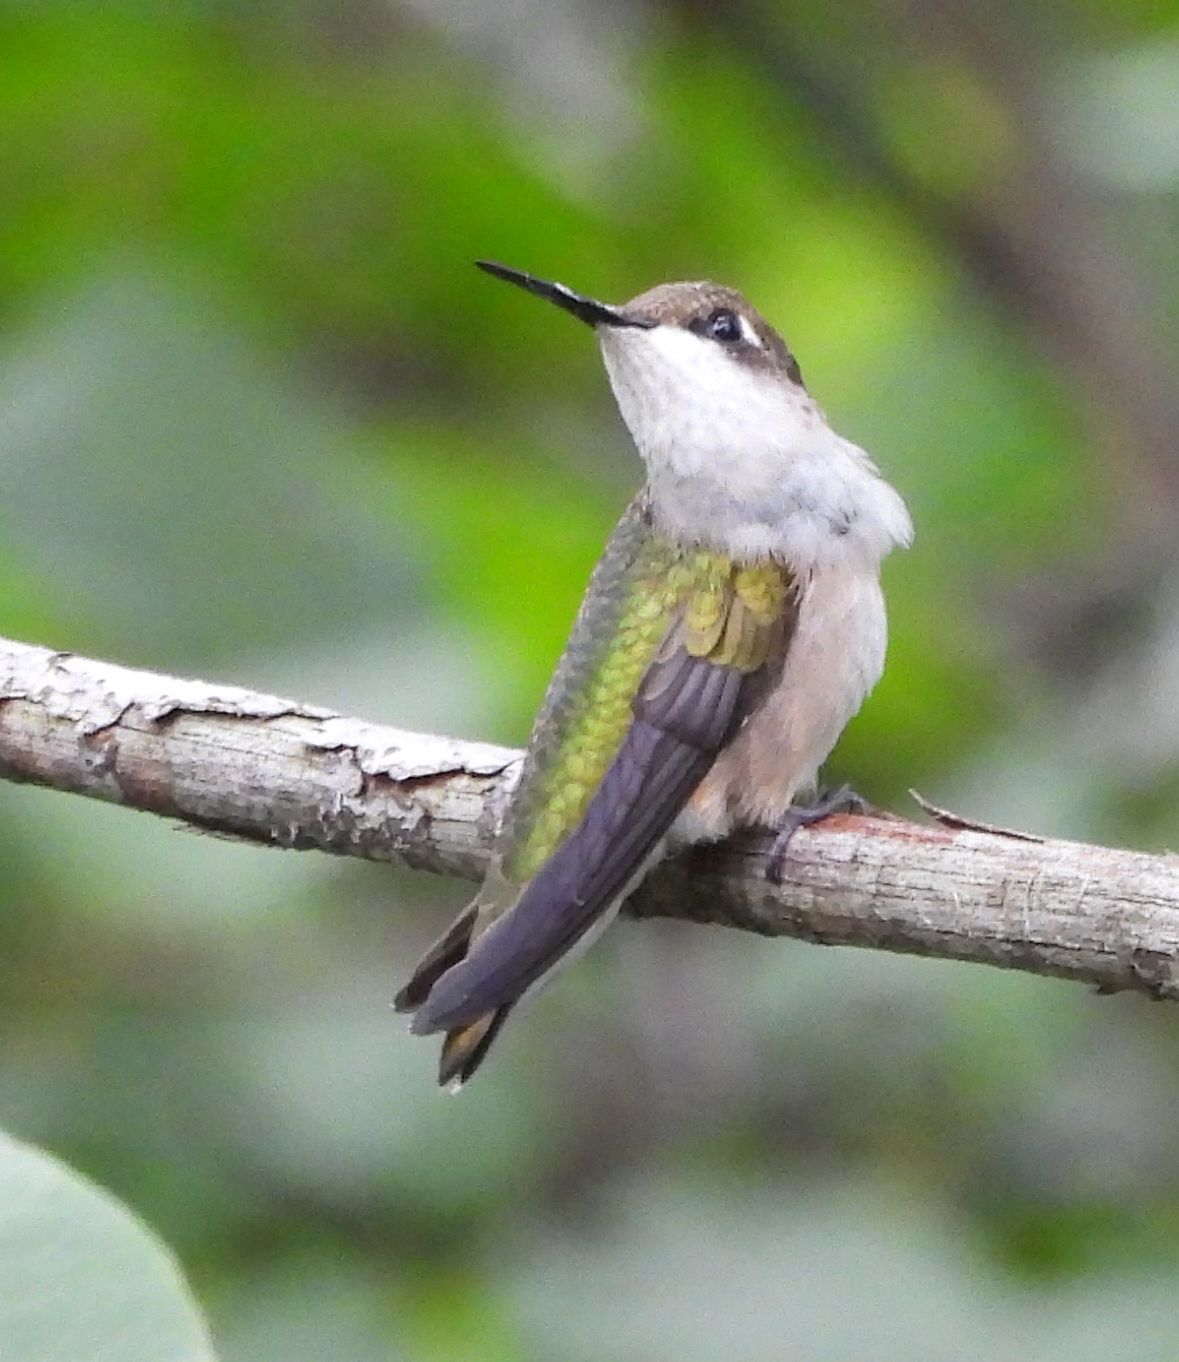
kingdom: Animalia
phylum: Chordata
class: Aves
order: Apodiformes
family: Trochilidae
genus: Archilochus
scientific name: Archilochus colubris
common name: Ruby-throated hummingbird
